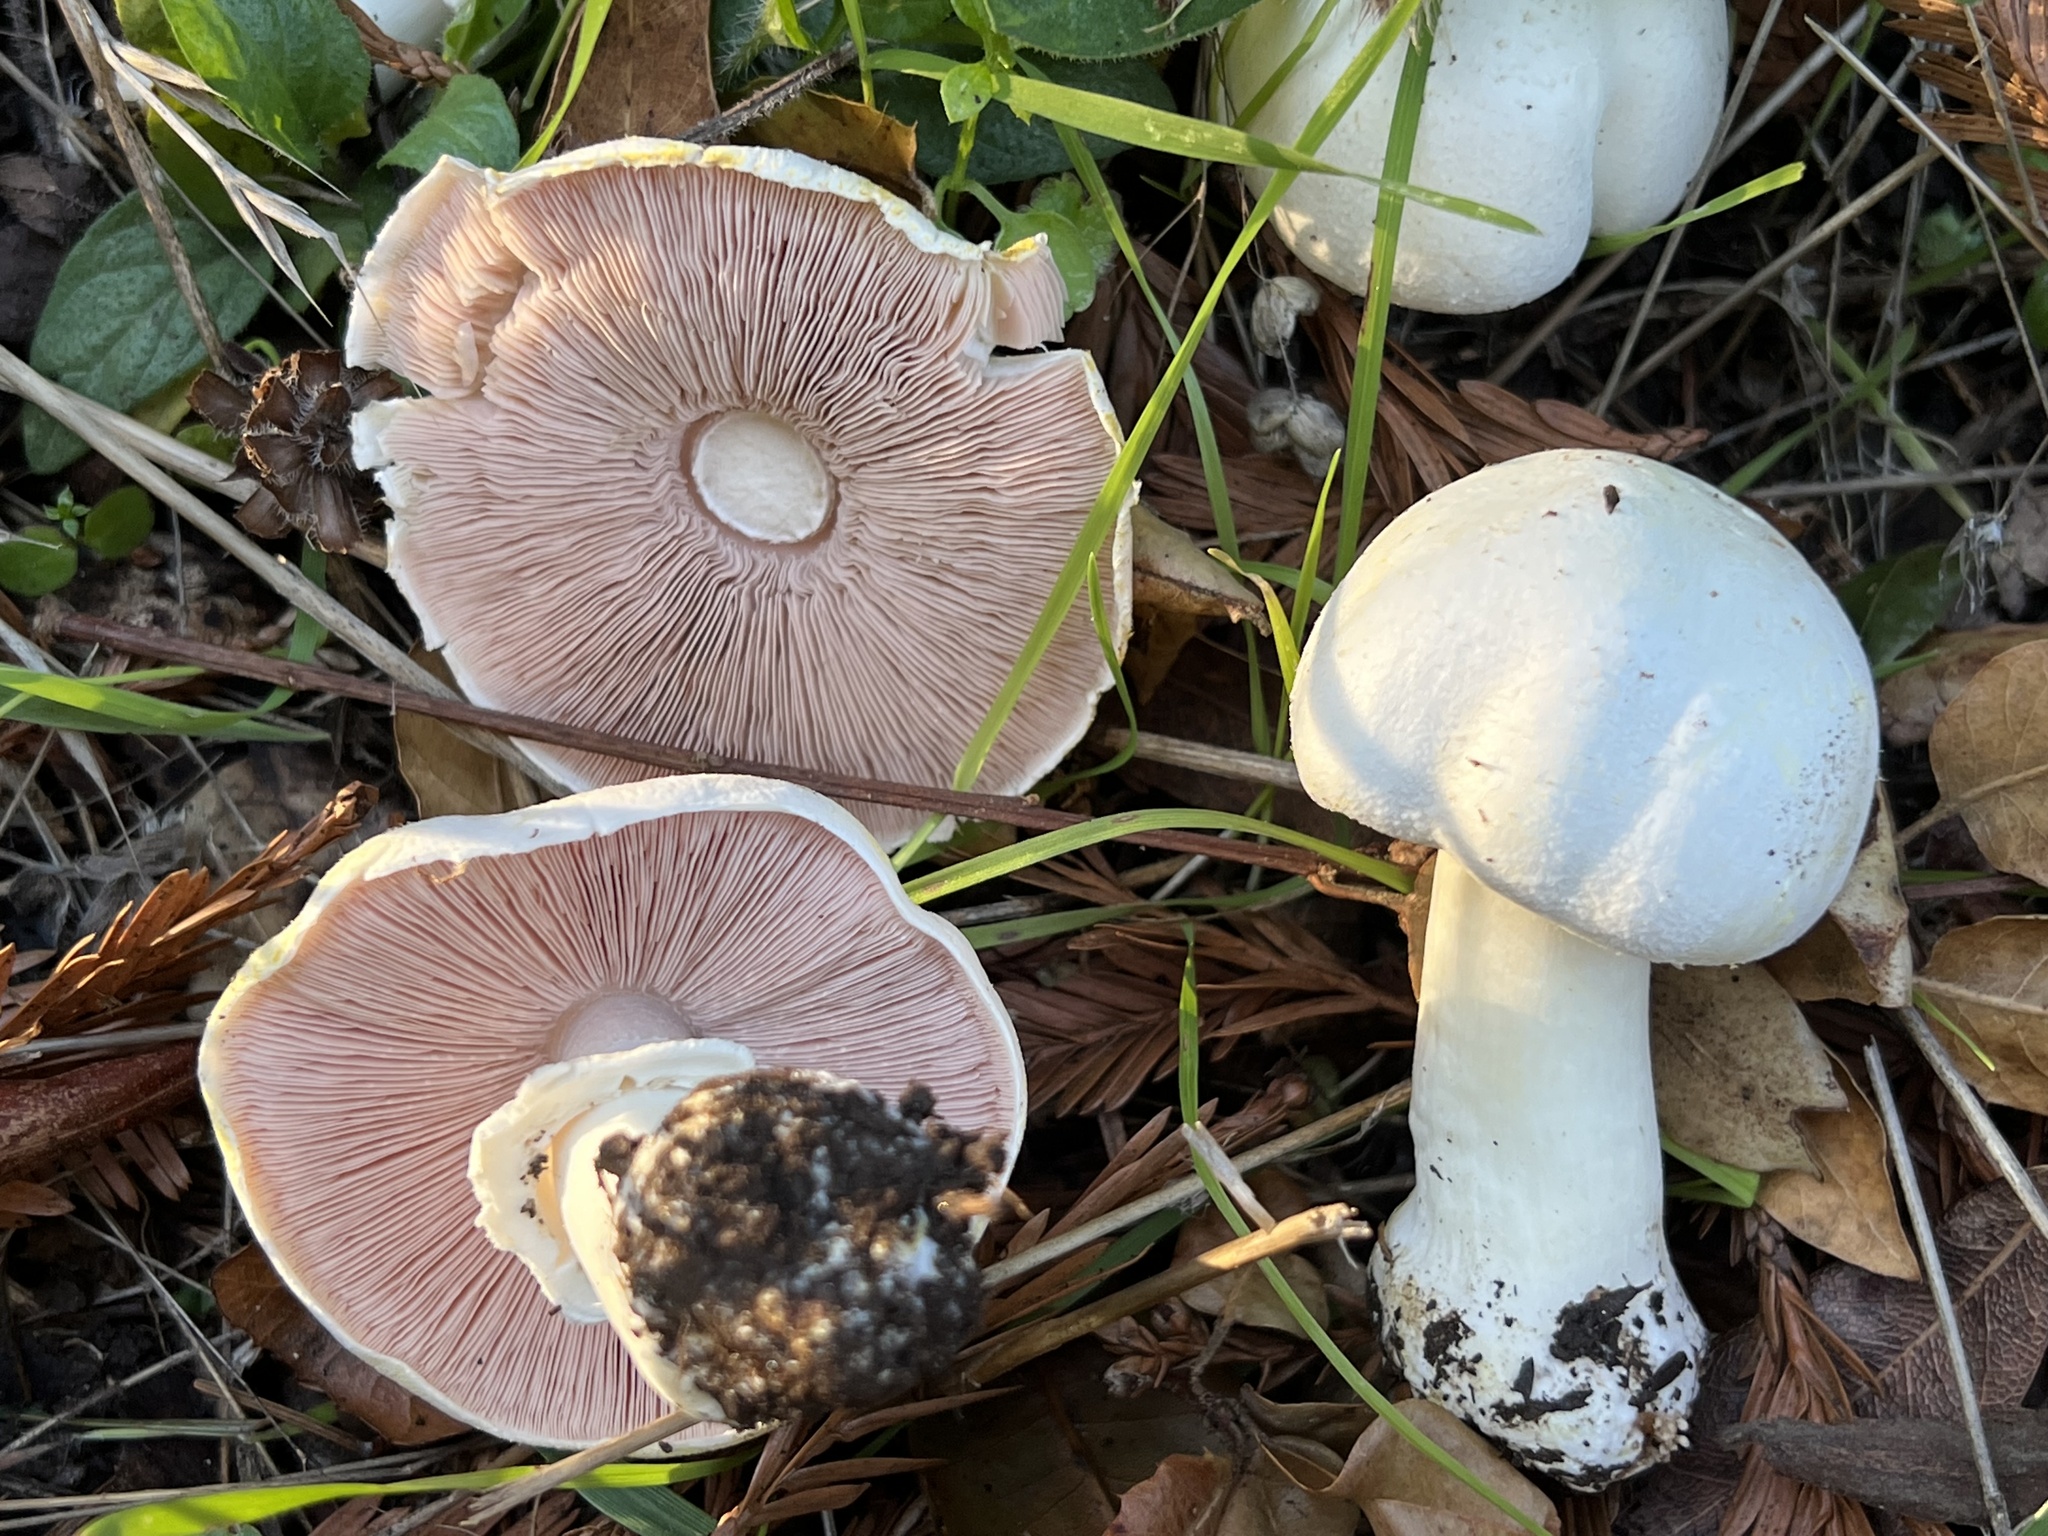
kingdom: Fungi
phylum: Basidiomycota
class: Agaricomycetes
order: Agaricales
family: Agaricaceae
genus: Agaricus
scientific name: Agaricus xanthodermus
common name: Yellow stainer
